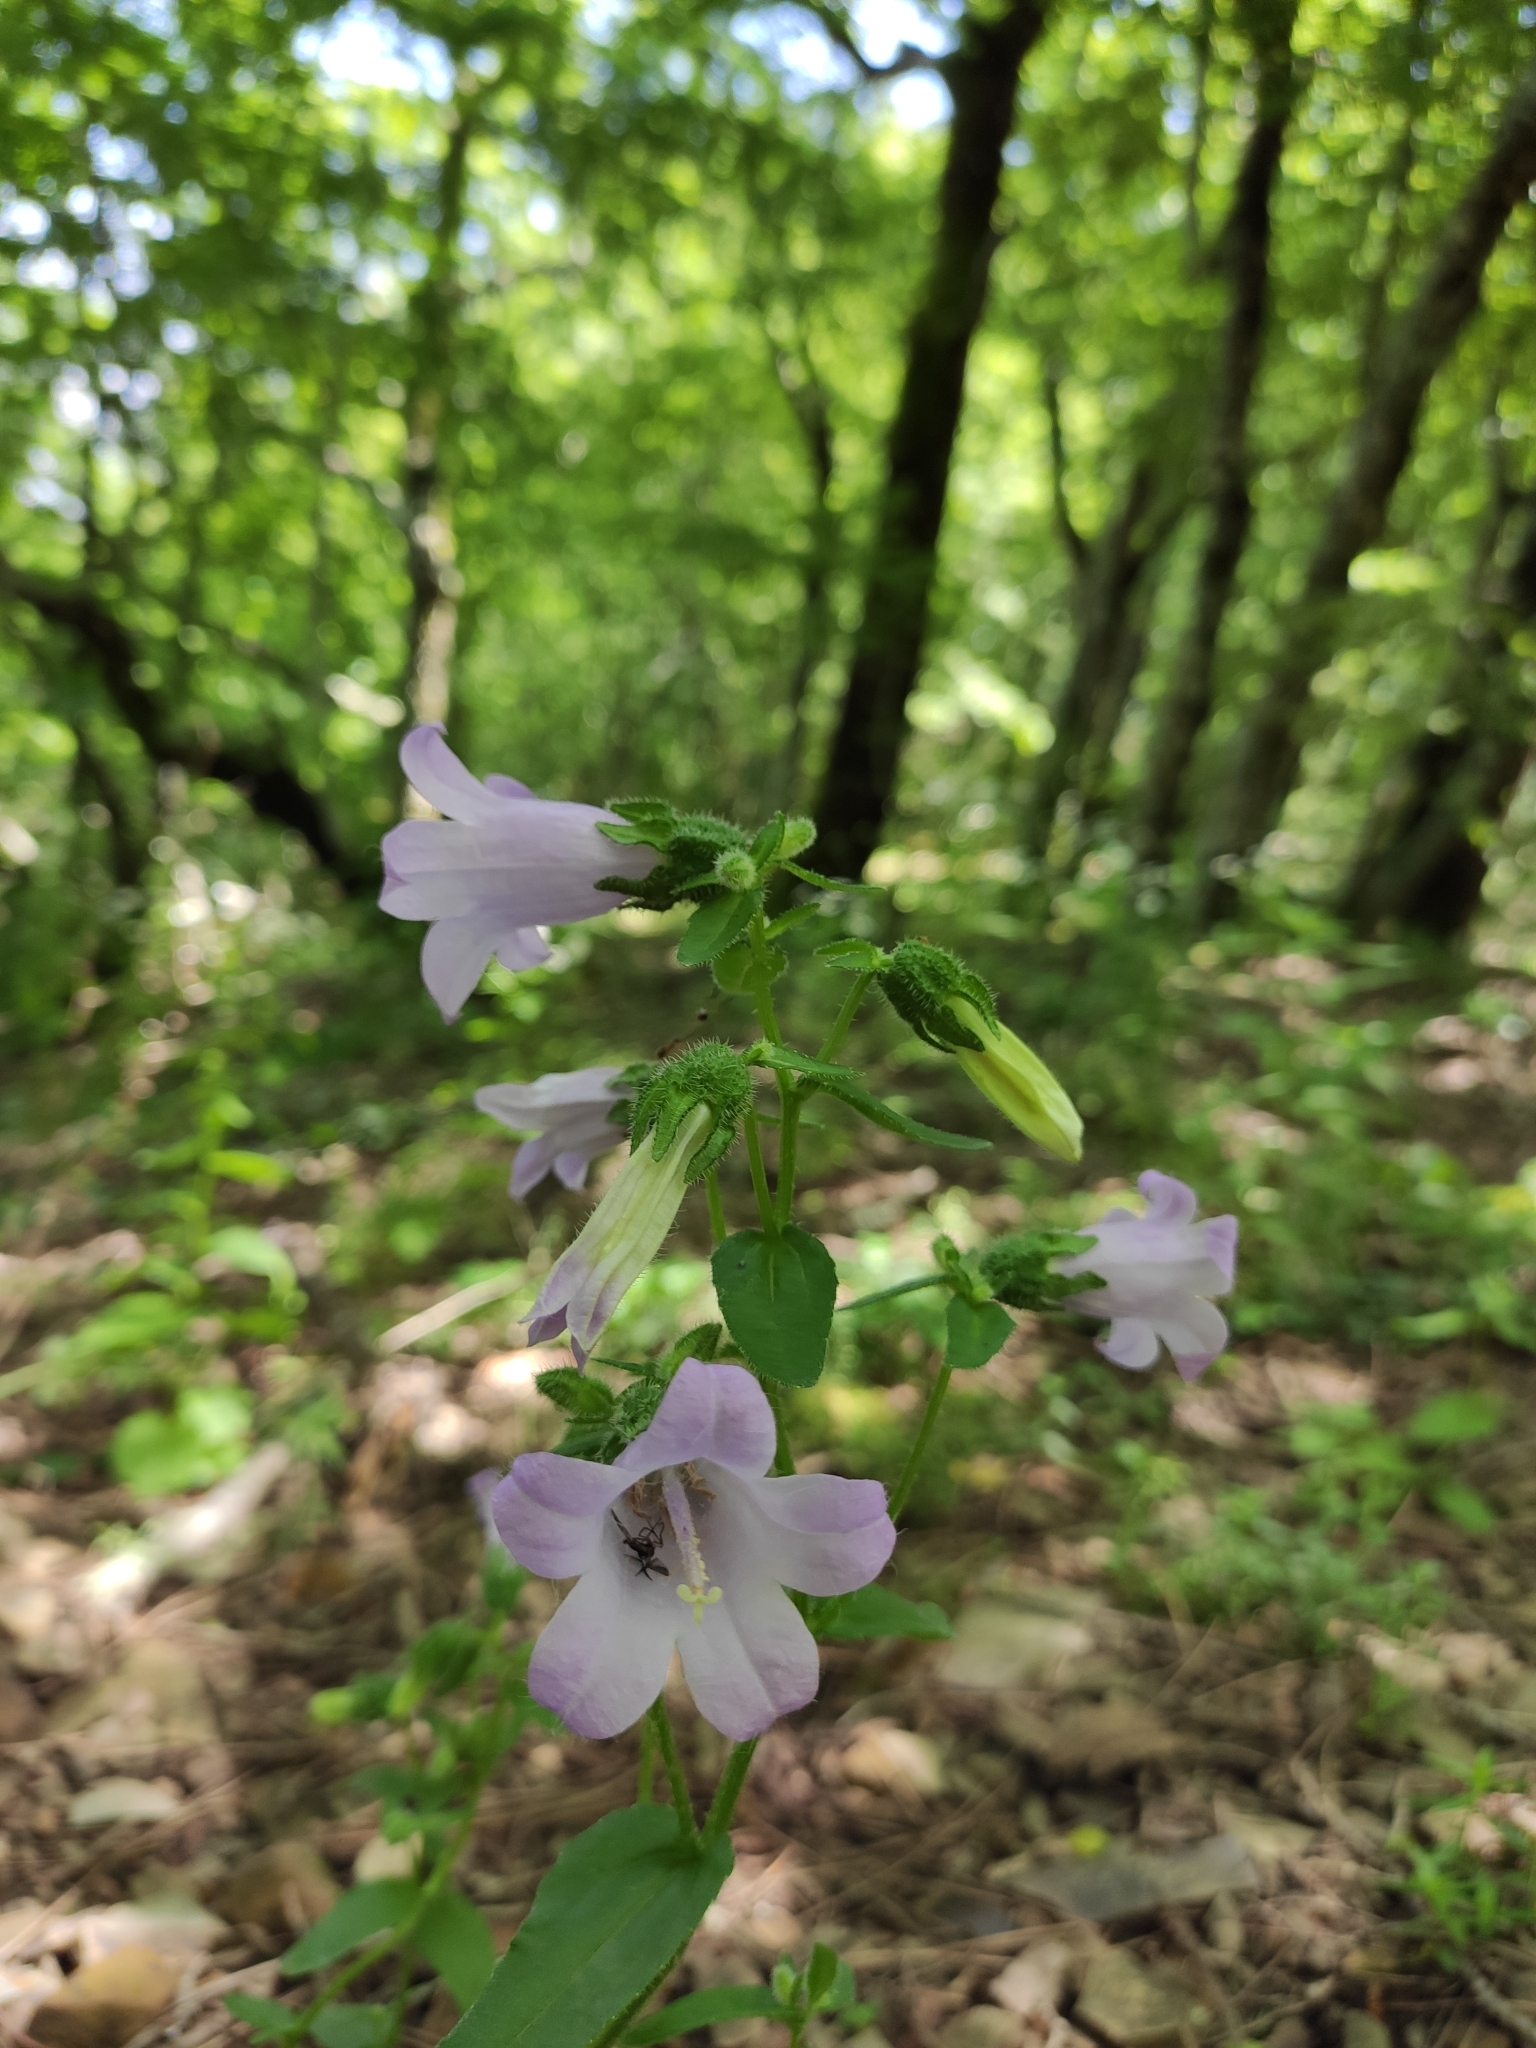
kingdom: Plantae
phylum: Tracheophyta
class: Magnoliopsida
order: Asterales
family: Campanulaceae
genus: Campanula
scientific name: Campanula komarovii
